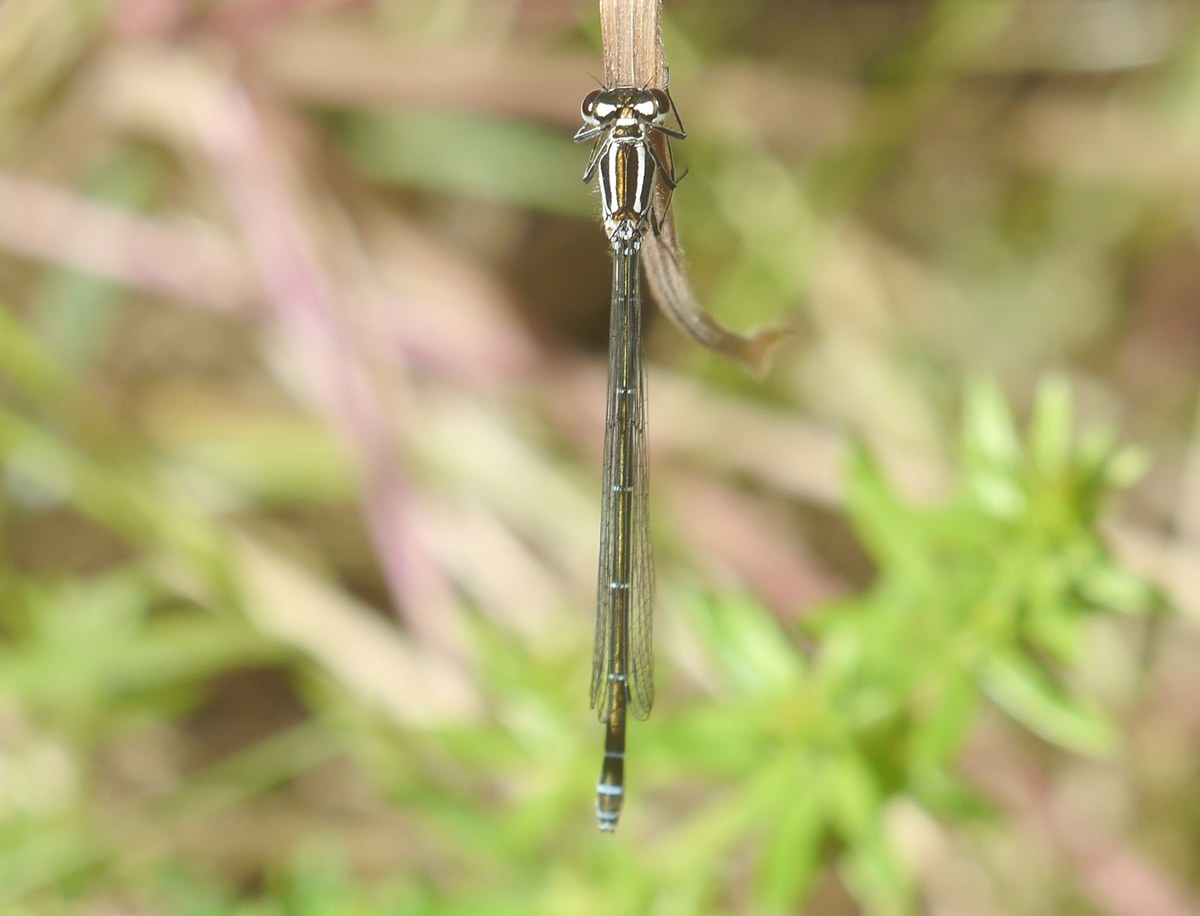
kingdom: Animalia
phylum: Arthropoda
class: Insecta
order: Odonata
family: Coenagrionidae
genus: Coenagrion
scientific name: Coenagrion puella
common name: Azure damselfly
